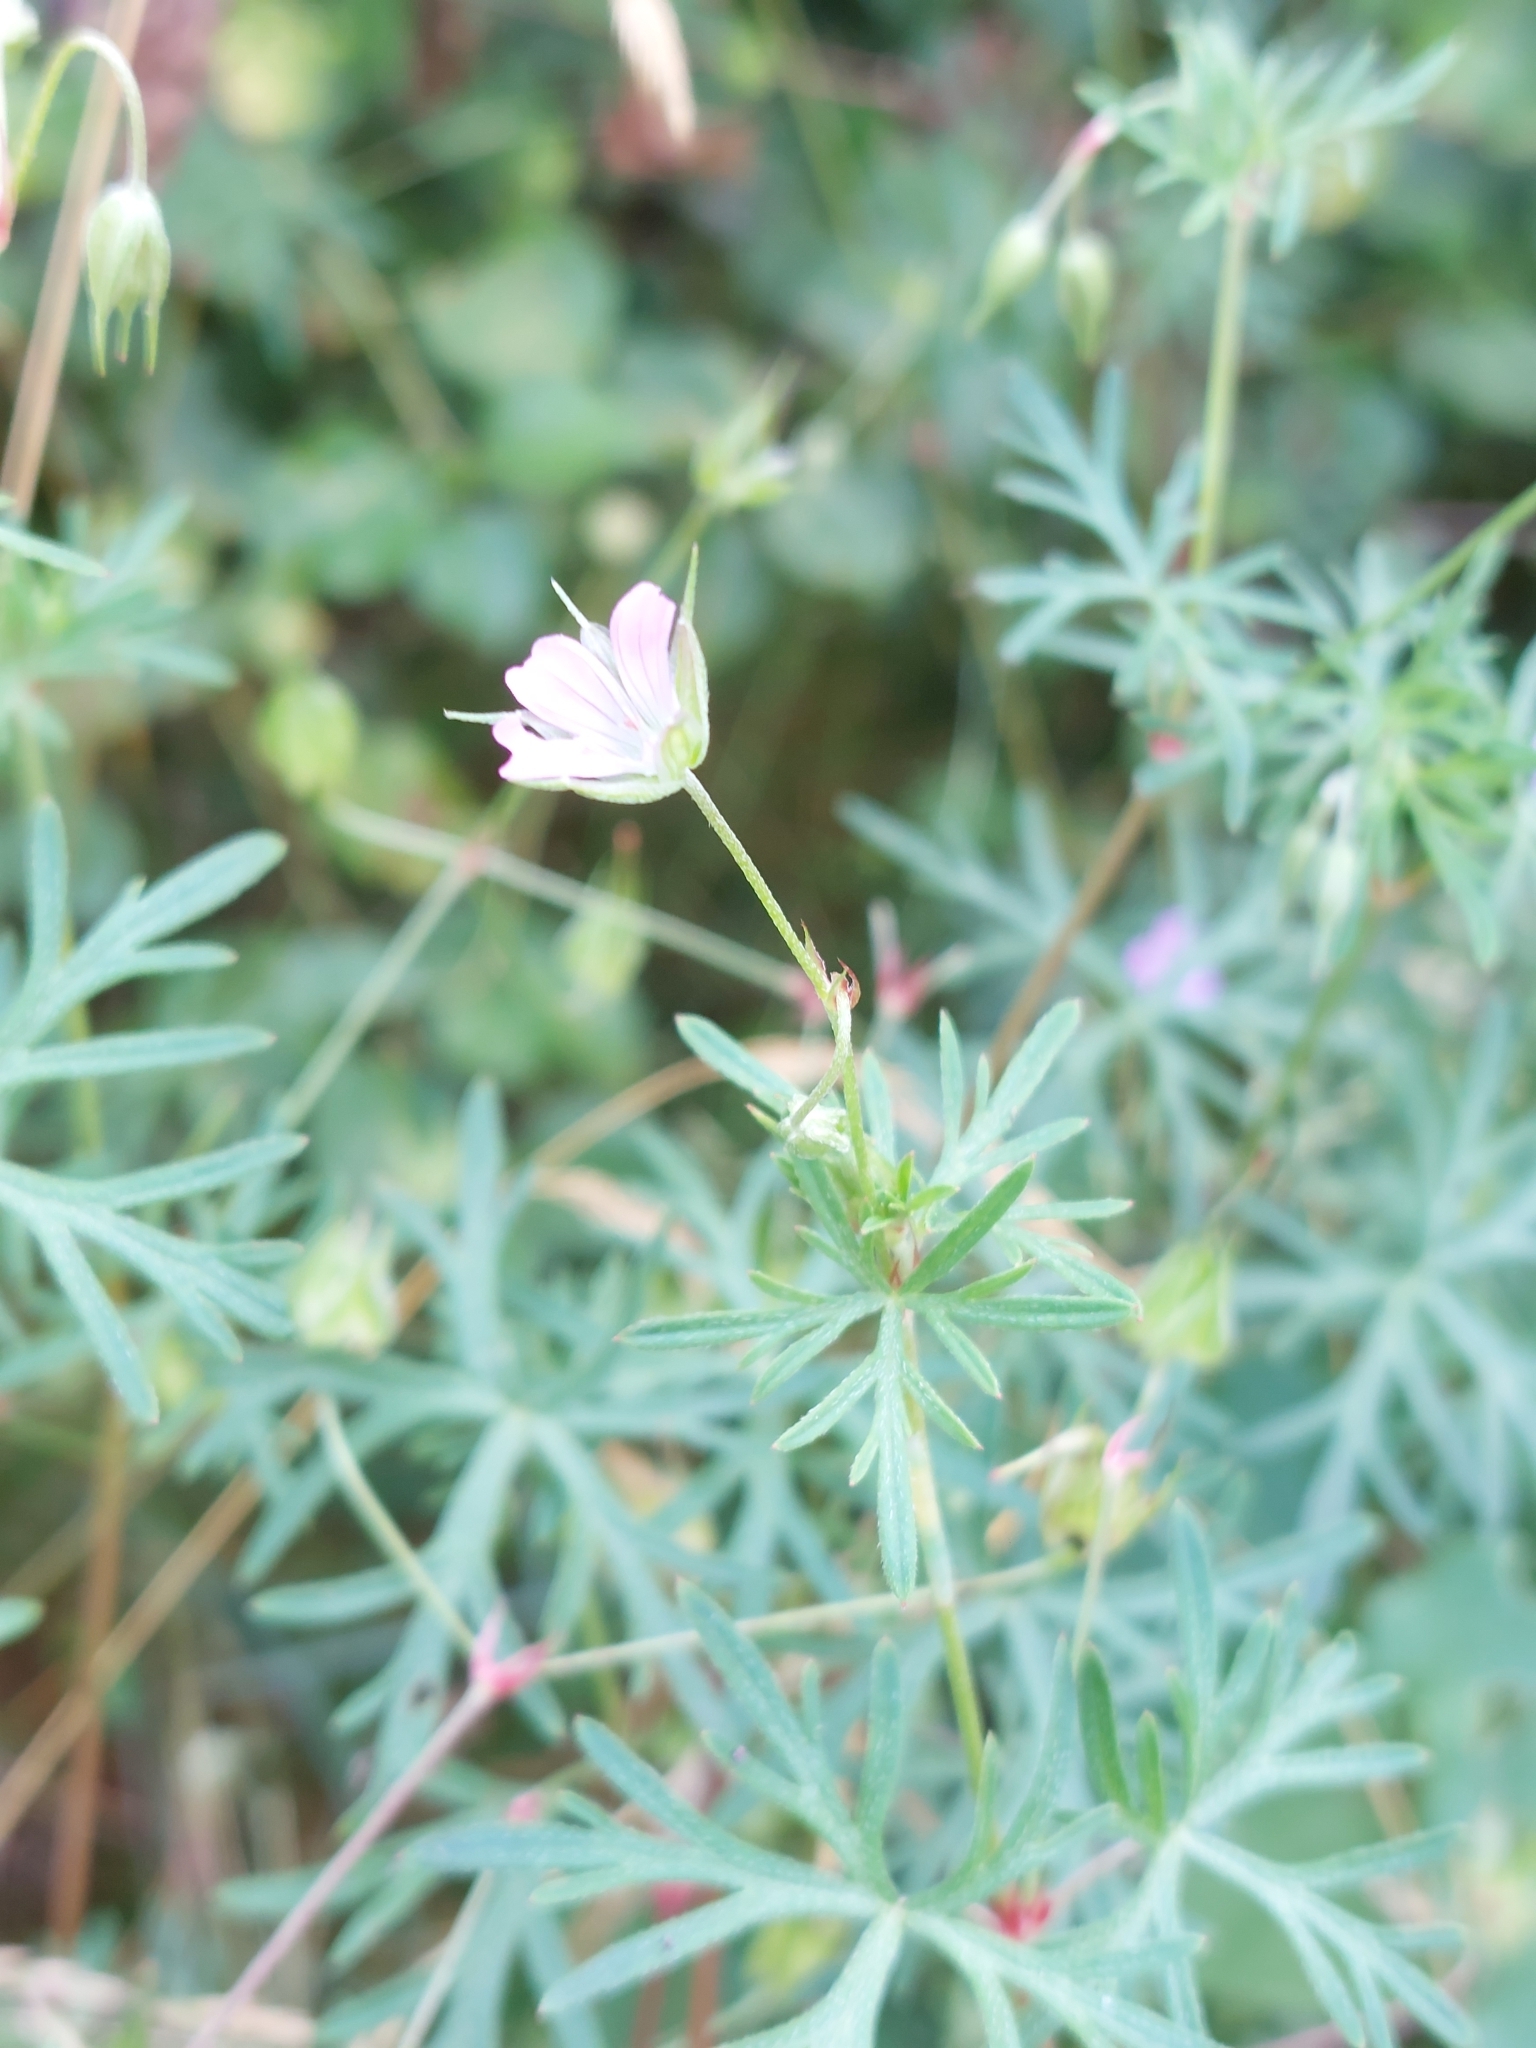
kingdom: Plantae
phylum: Tracheophyta
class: Magnoliopsida
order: Geraniales
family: Geraniaceae
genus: Geranium
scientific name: Geranium columbinum
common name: Long-stalked crane's-bill
